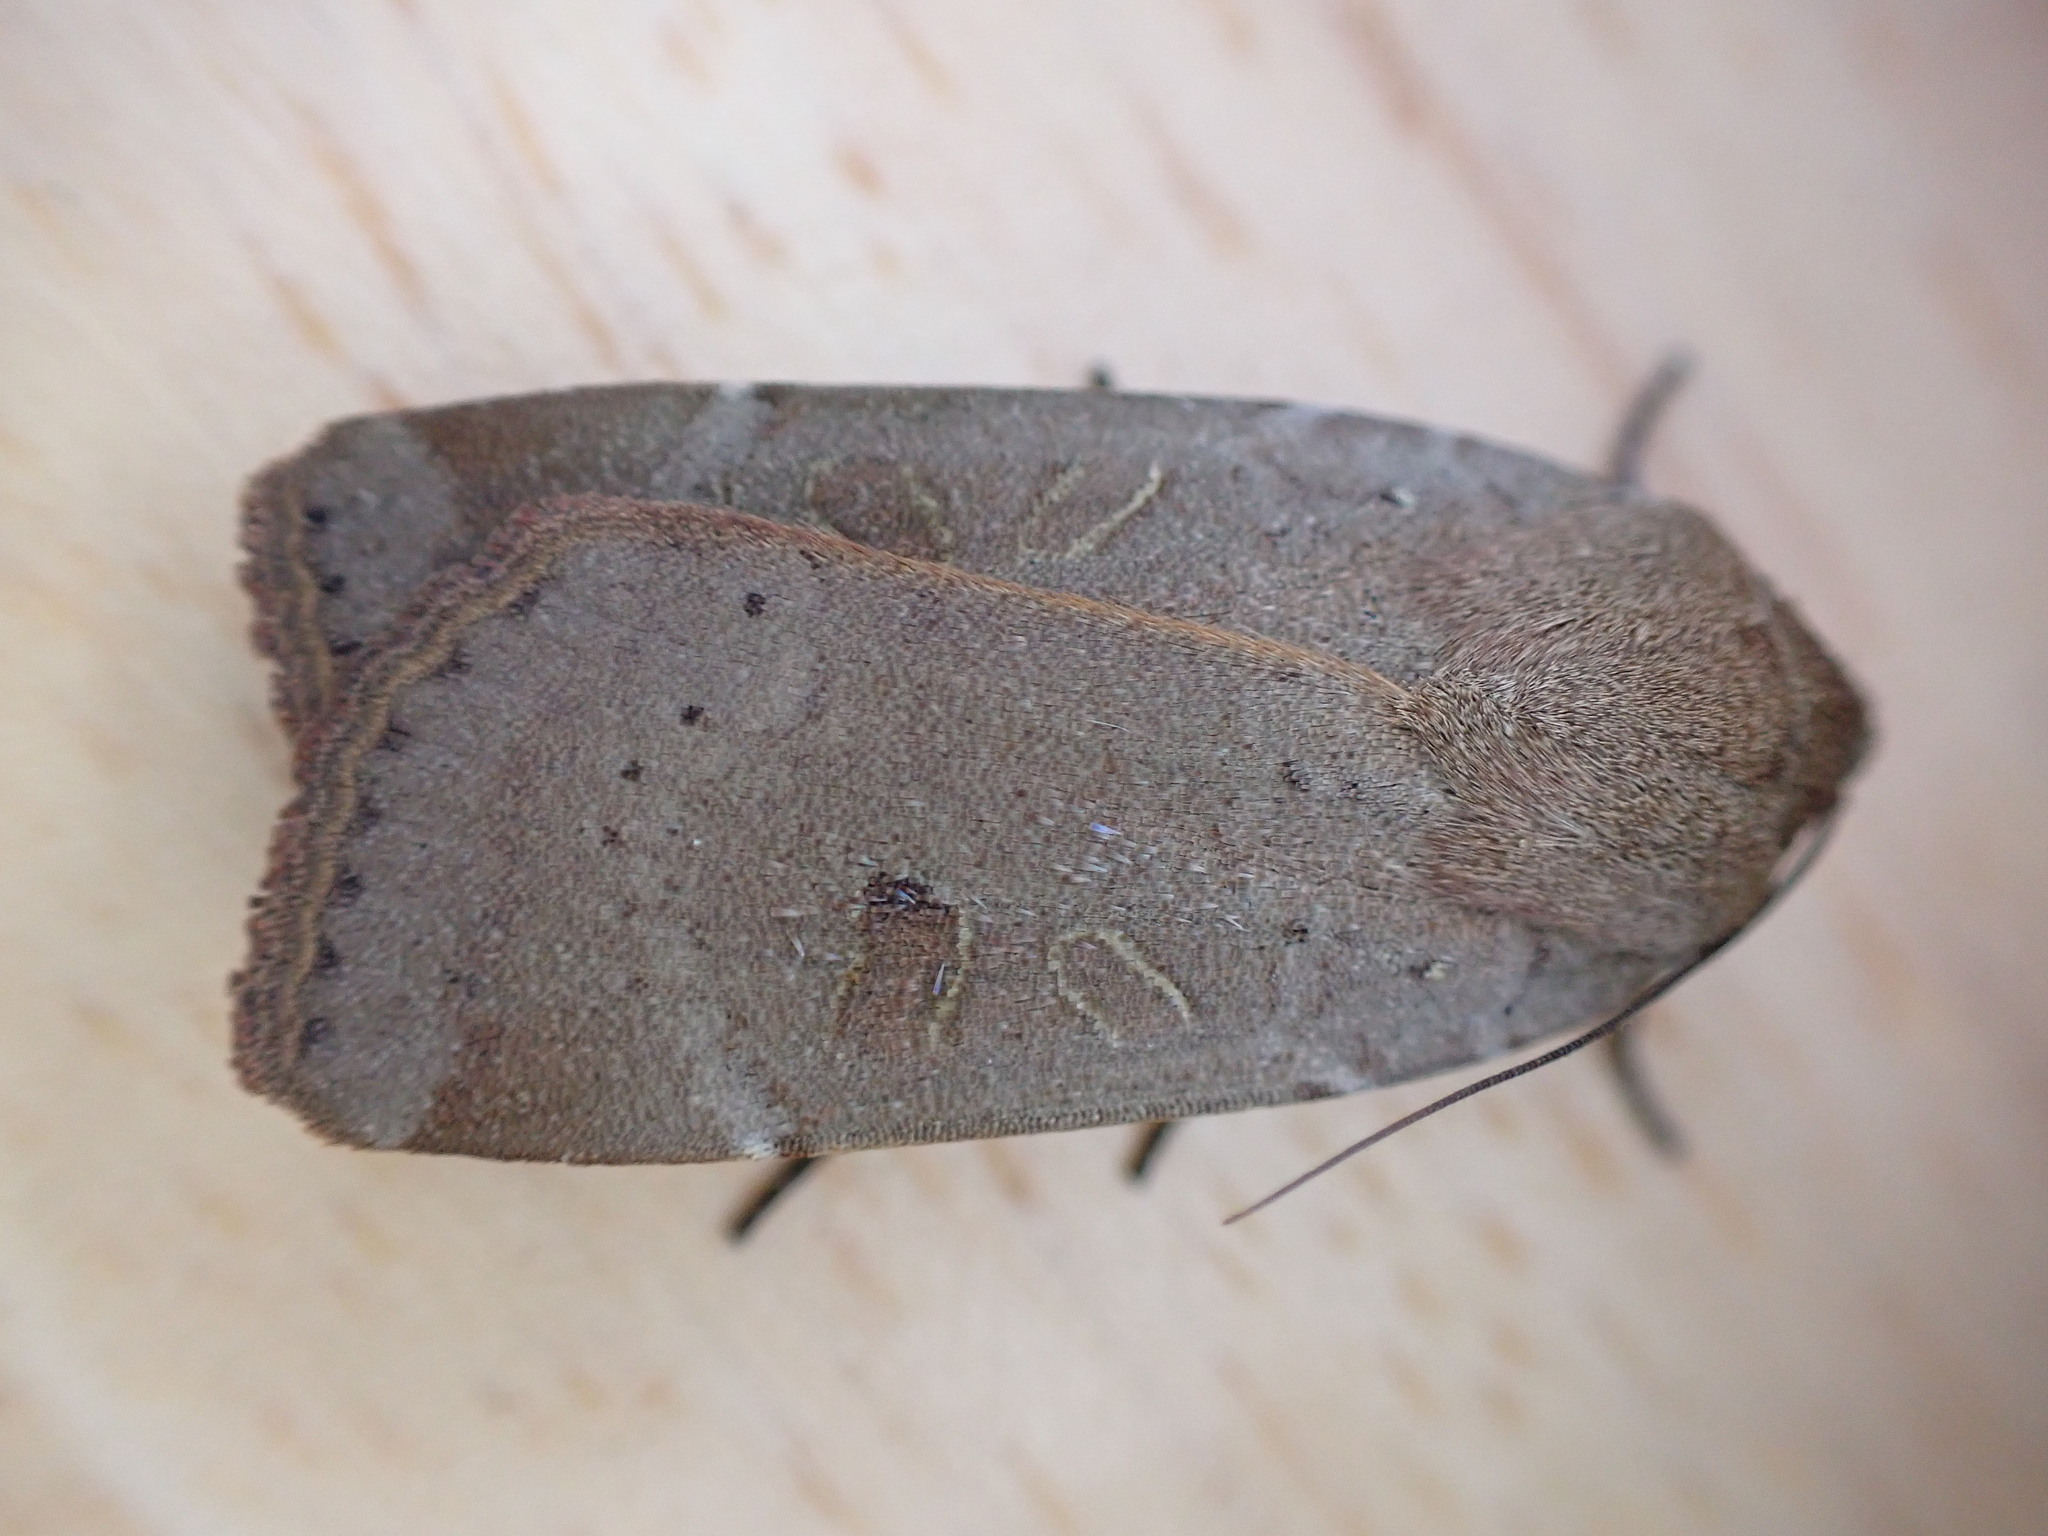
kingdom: Animalia
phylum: Arthropoda
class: Insecta
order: Lepidoptera
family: Noctuidae
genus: Noctua
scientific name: Noctua comes
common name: Lesser yellow underwing
